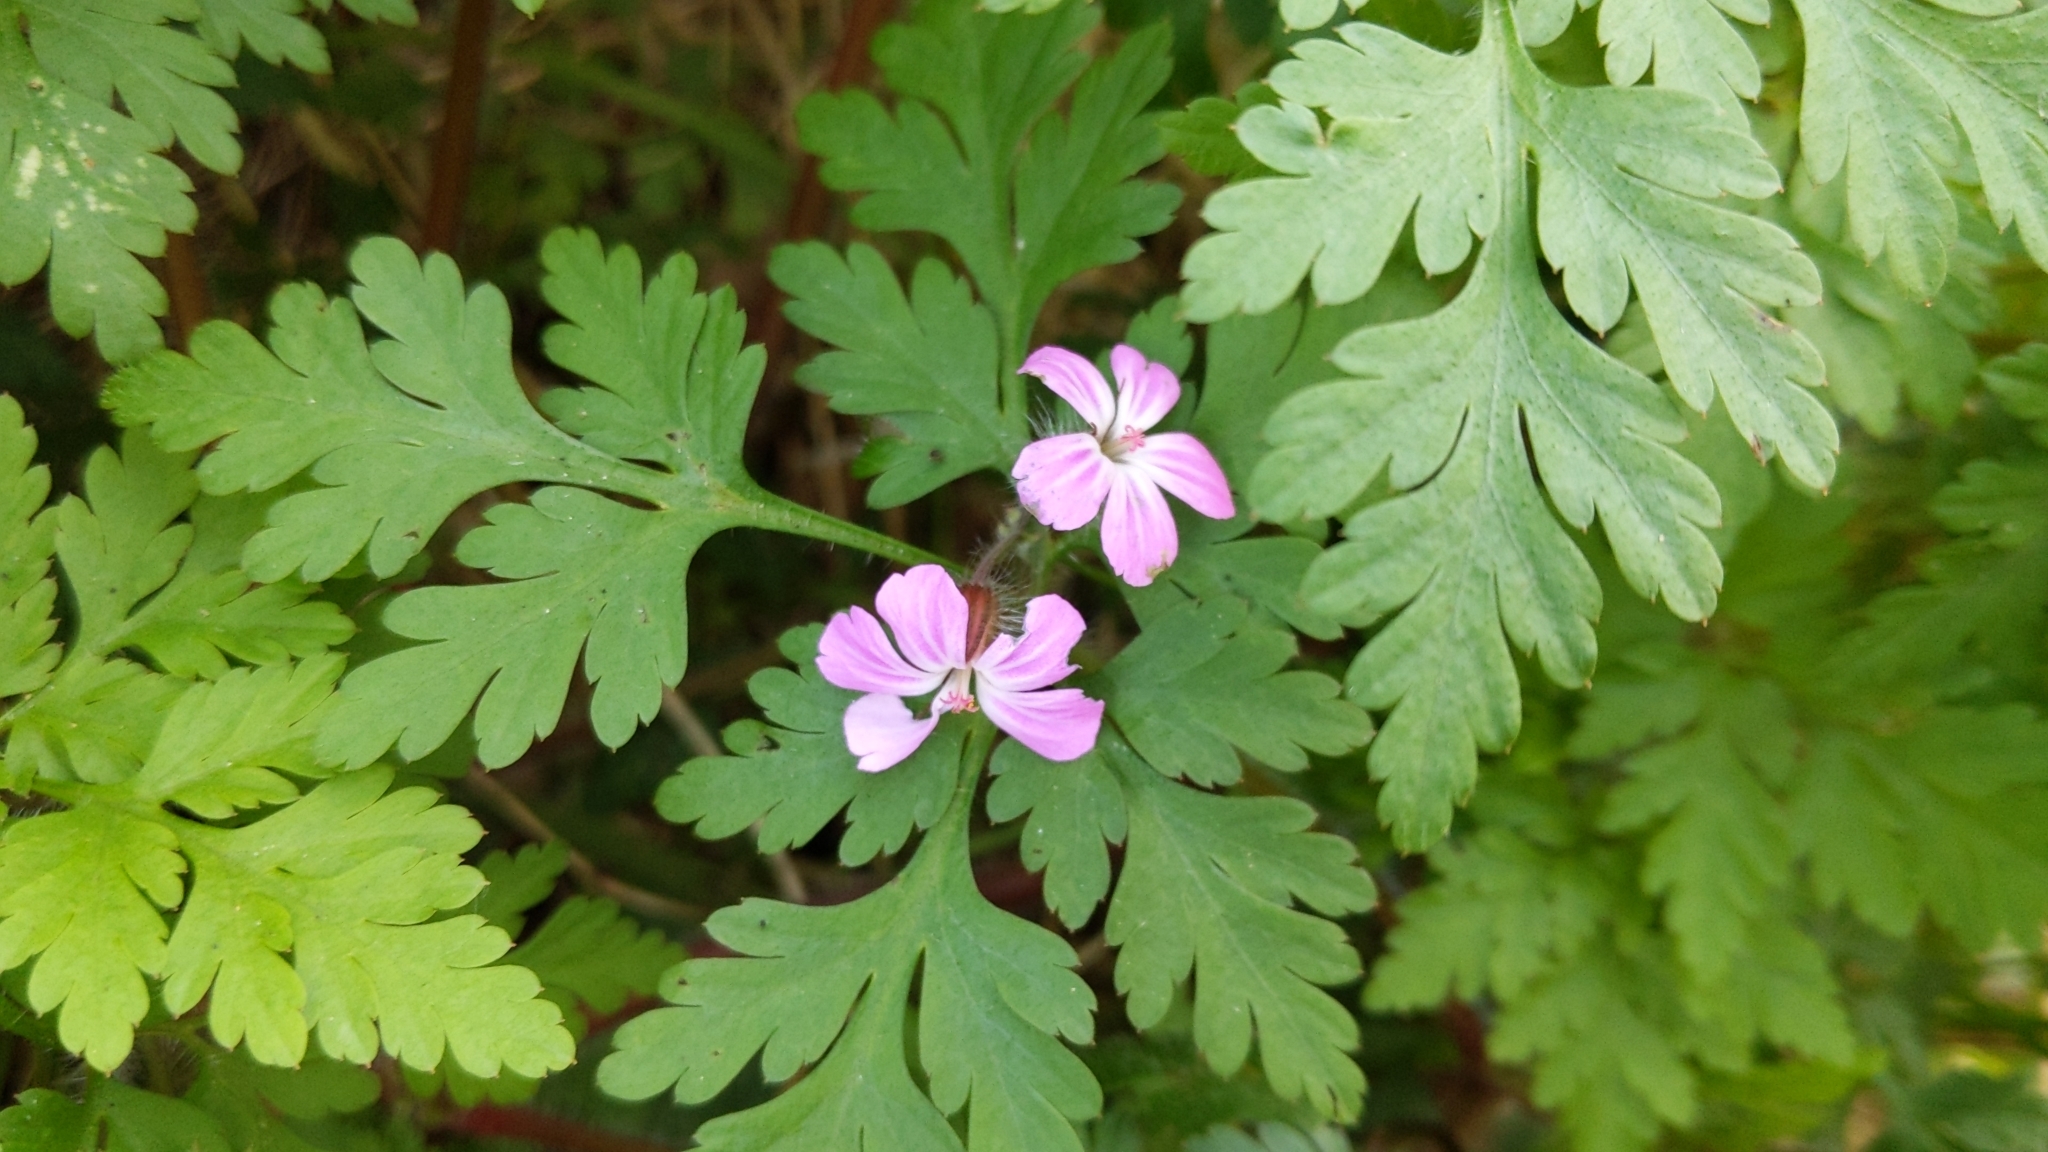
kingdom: Plantae
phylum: Tracheophyta
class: Magnoliopsida
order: Geraniales
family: Geraniaceae
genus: Geranium
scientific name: Geranium robertianum
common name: Herb-robert
